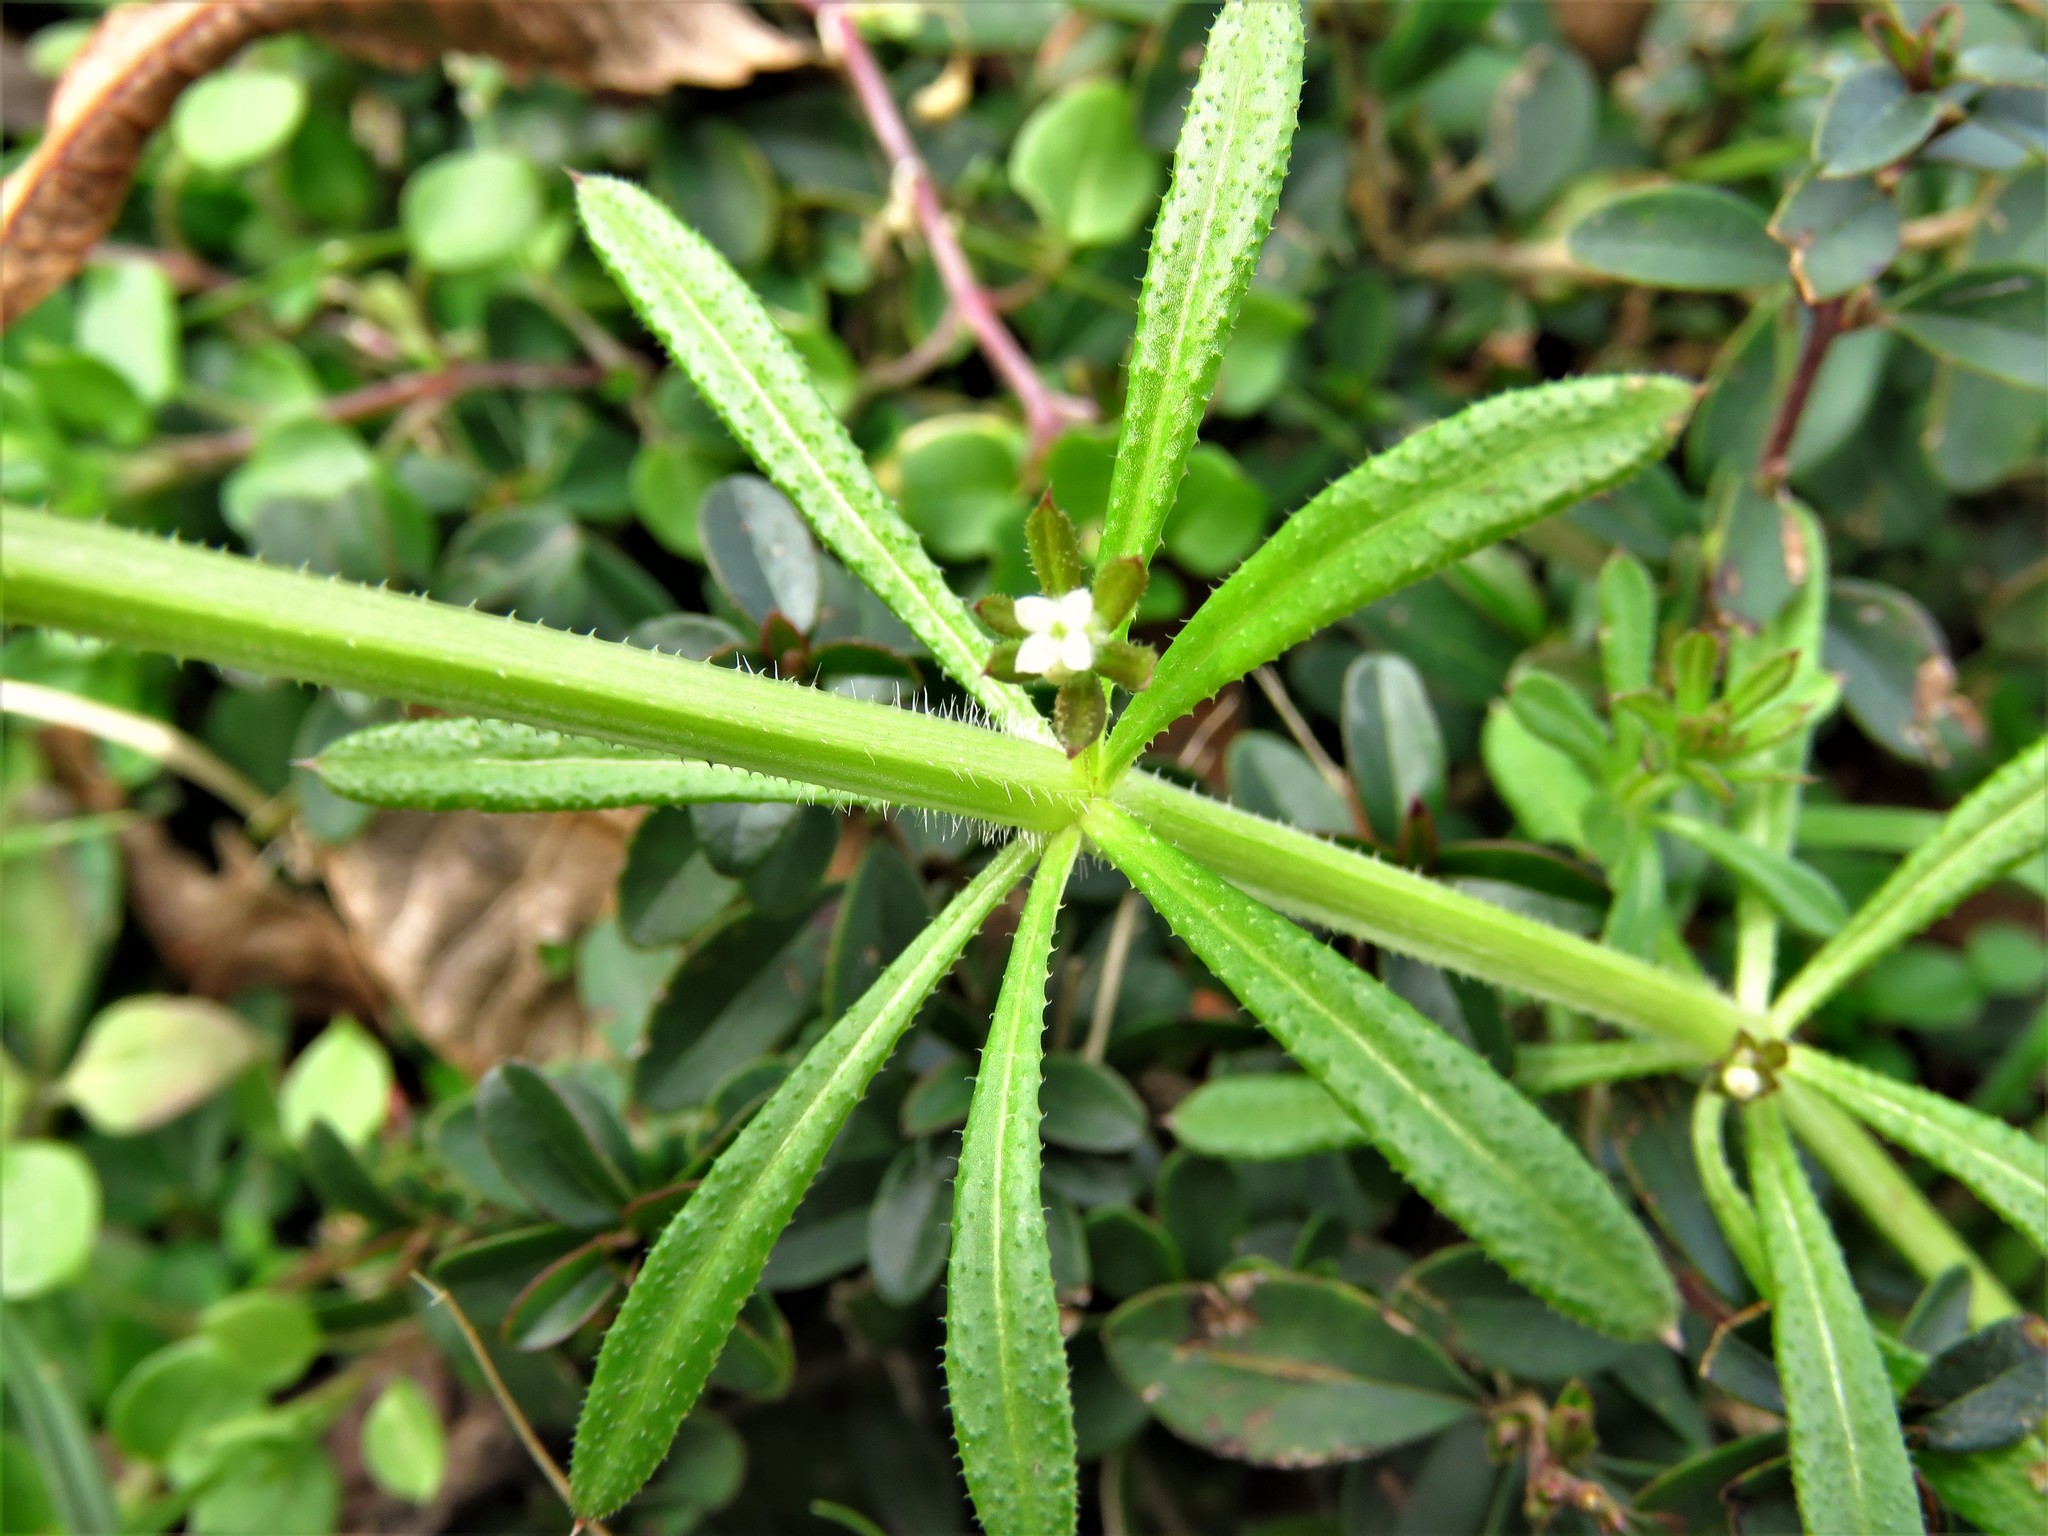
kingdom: Plantae
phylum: Tracheophyta
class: Magnoliopsida
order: Gentianales
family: Rubiaceae
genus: Galium
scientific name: Galium aparine
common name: Cleavers
